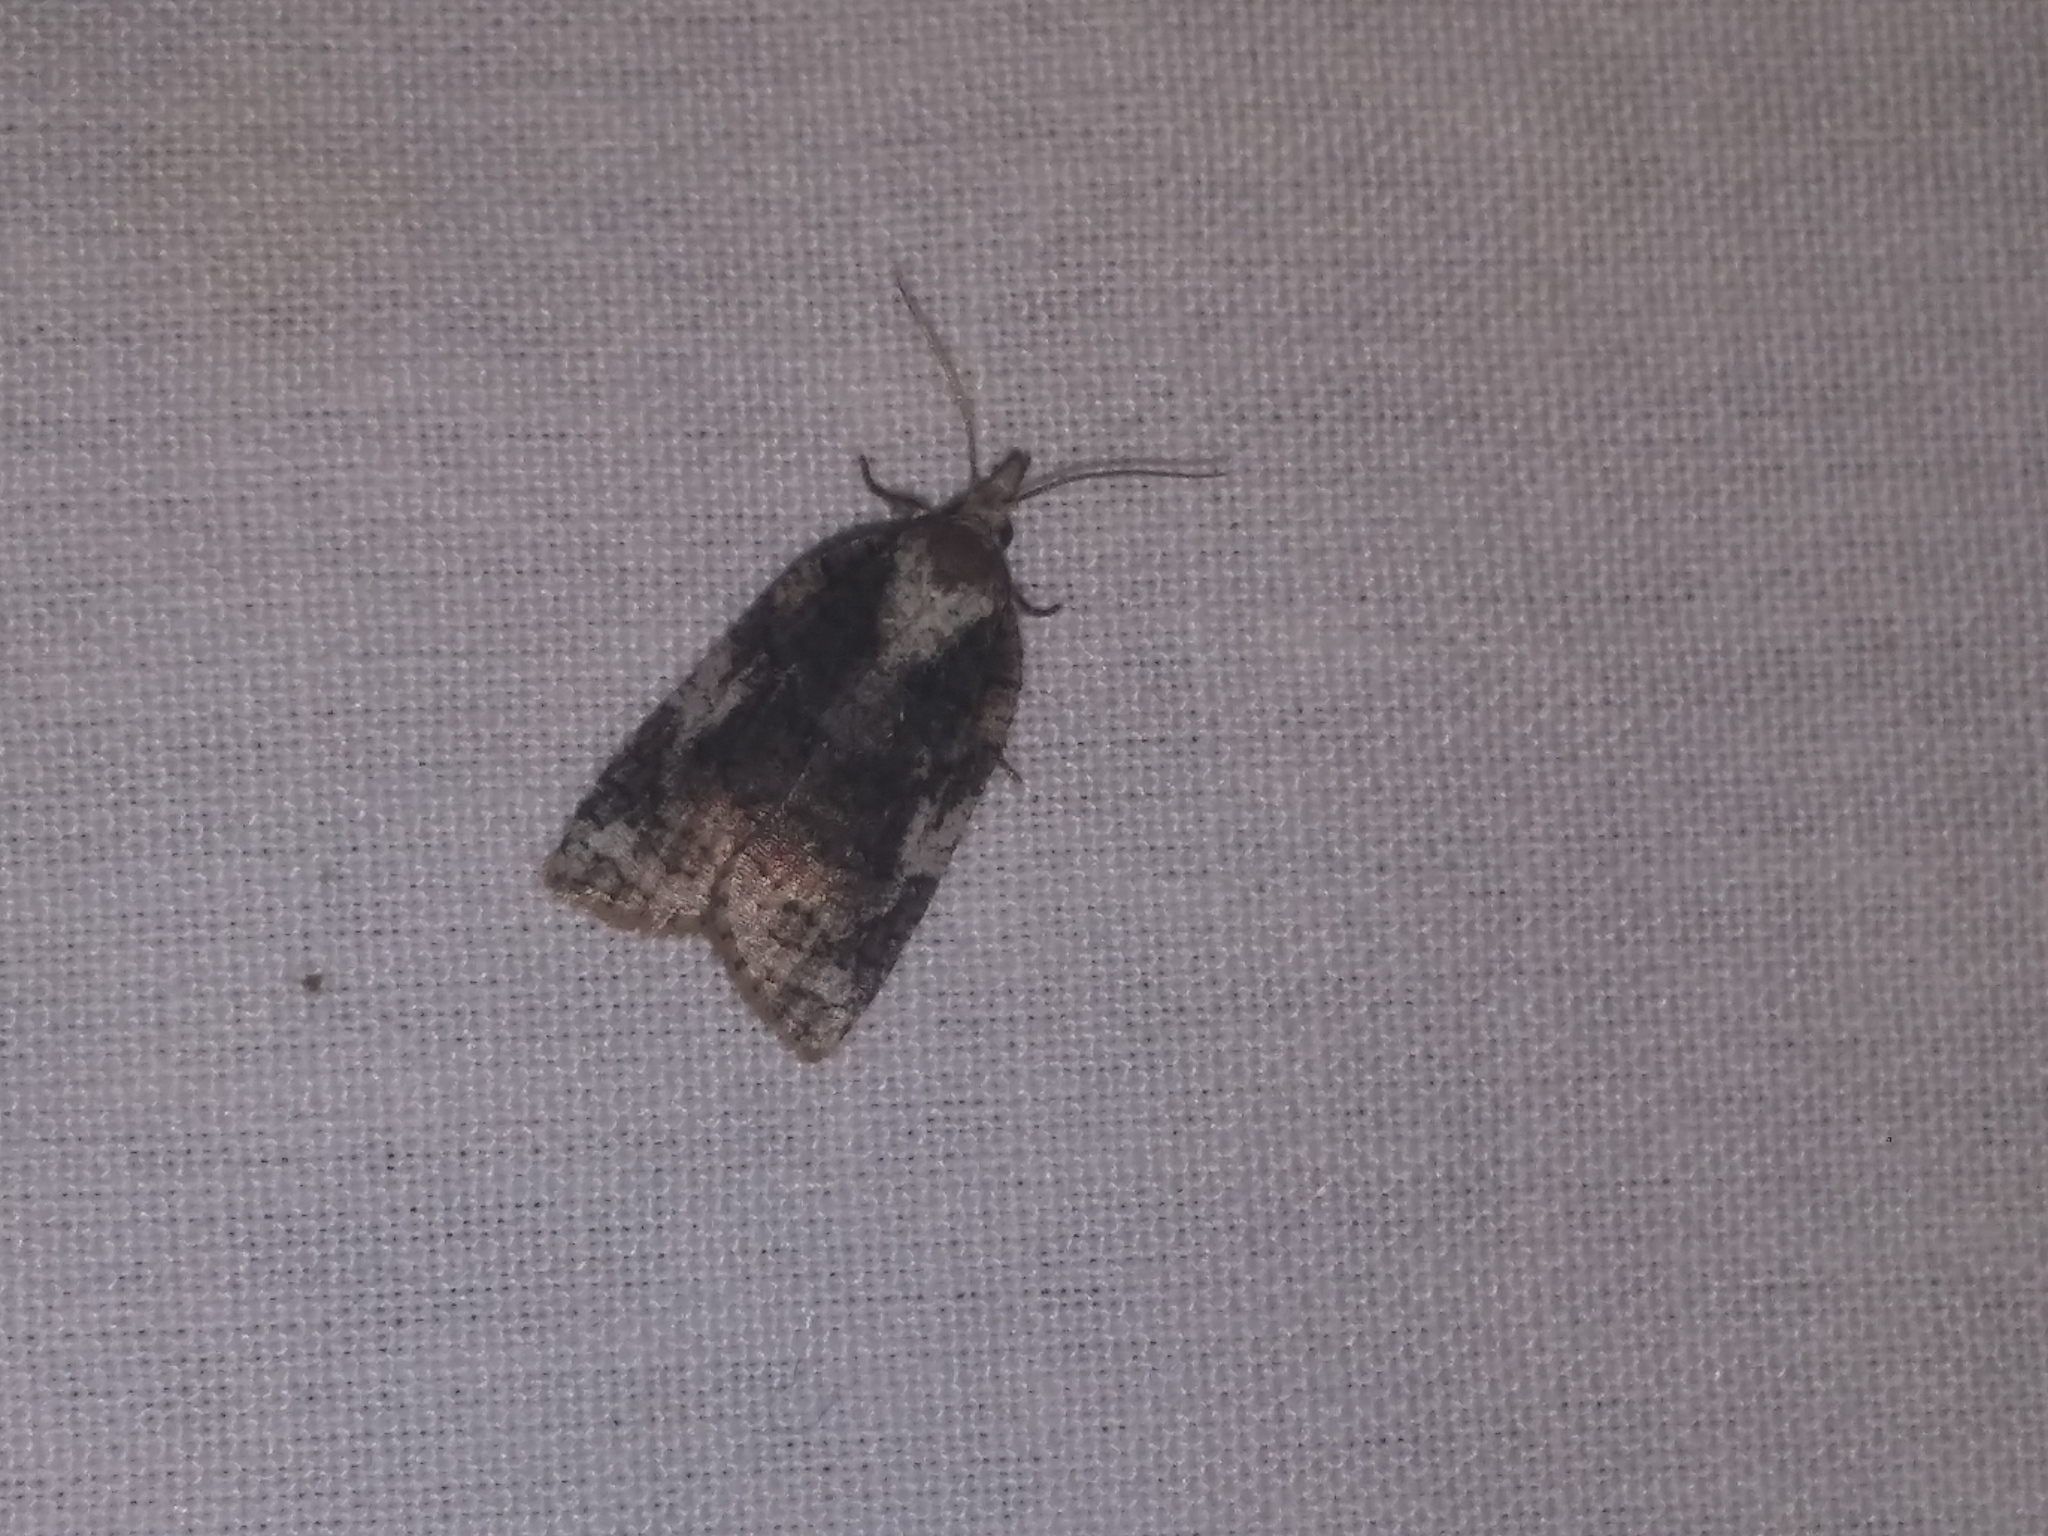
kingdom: Animalia
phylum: Arthropoda
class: Insecta
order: Lepidoptera
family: Tortricidae
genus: Platynota
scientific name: Platynota exasperatana
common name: Exasperating platynota moth
